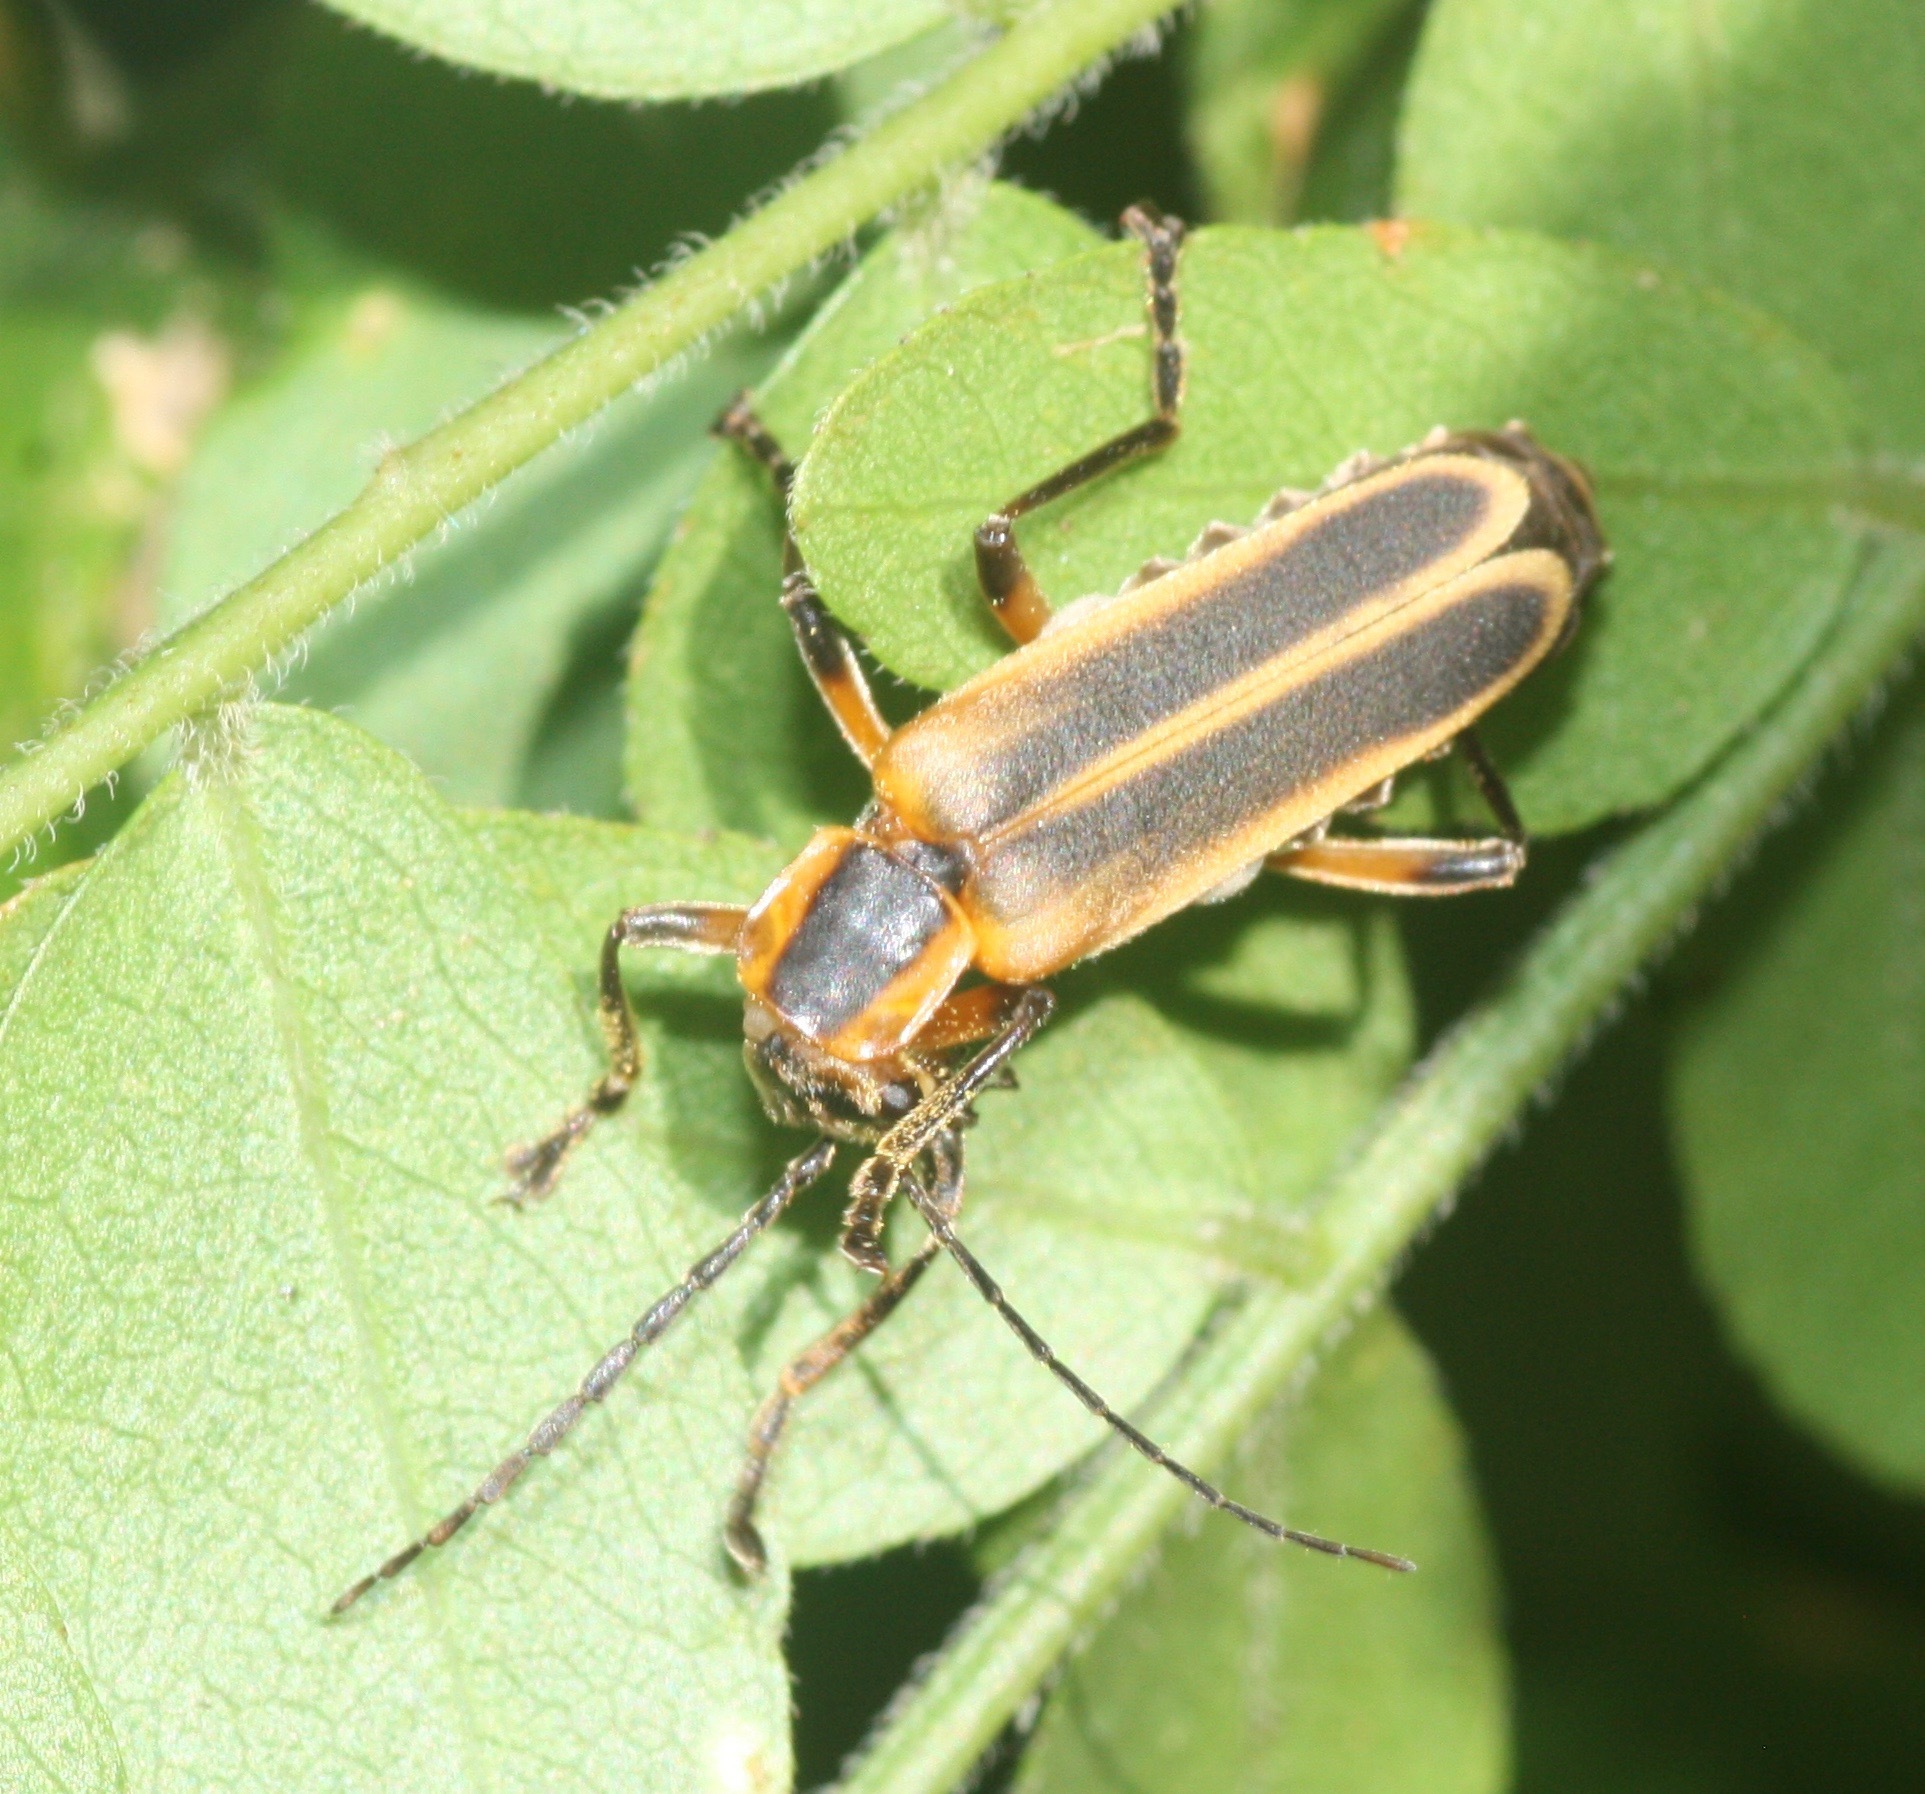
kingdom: Animalia
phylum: Arthropoda
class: Insecta
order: Coleoptera
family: Cantharidae
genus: Chauliognathus
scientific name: Chauliognathus marginatus
